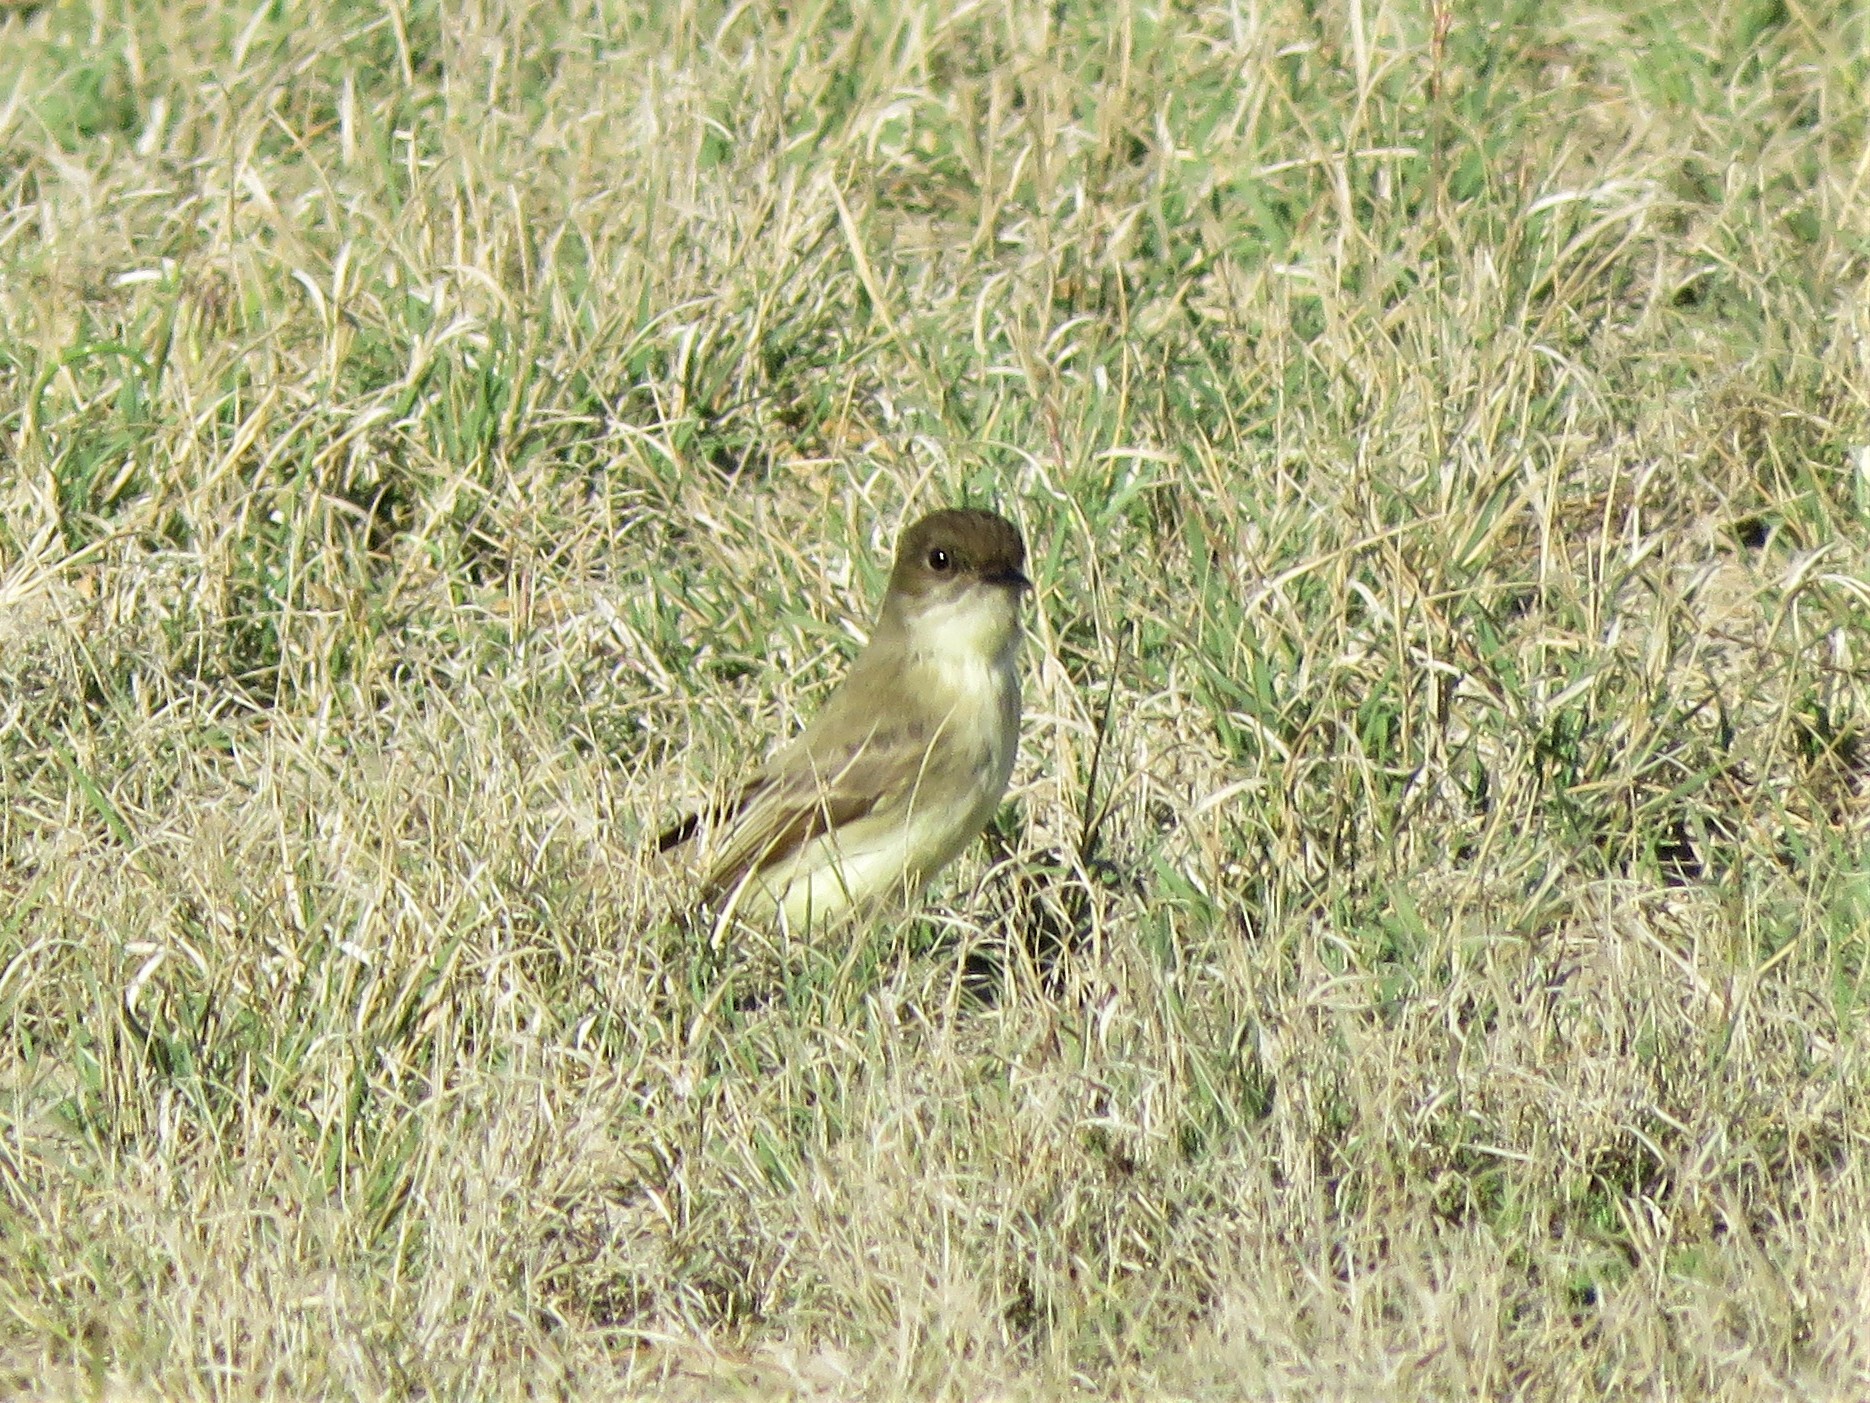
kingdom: Animalia
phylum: Chordata
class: Aves
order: Passeriformes
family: Tyrannidae
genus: Sayornis
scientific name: Sayornis phoebe
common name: Eastern phoebe
